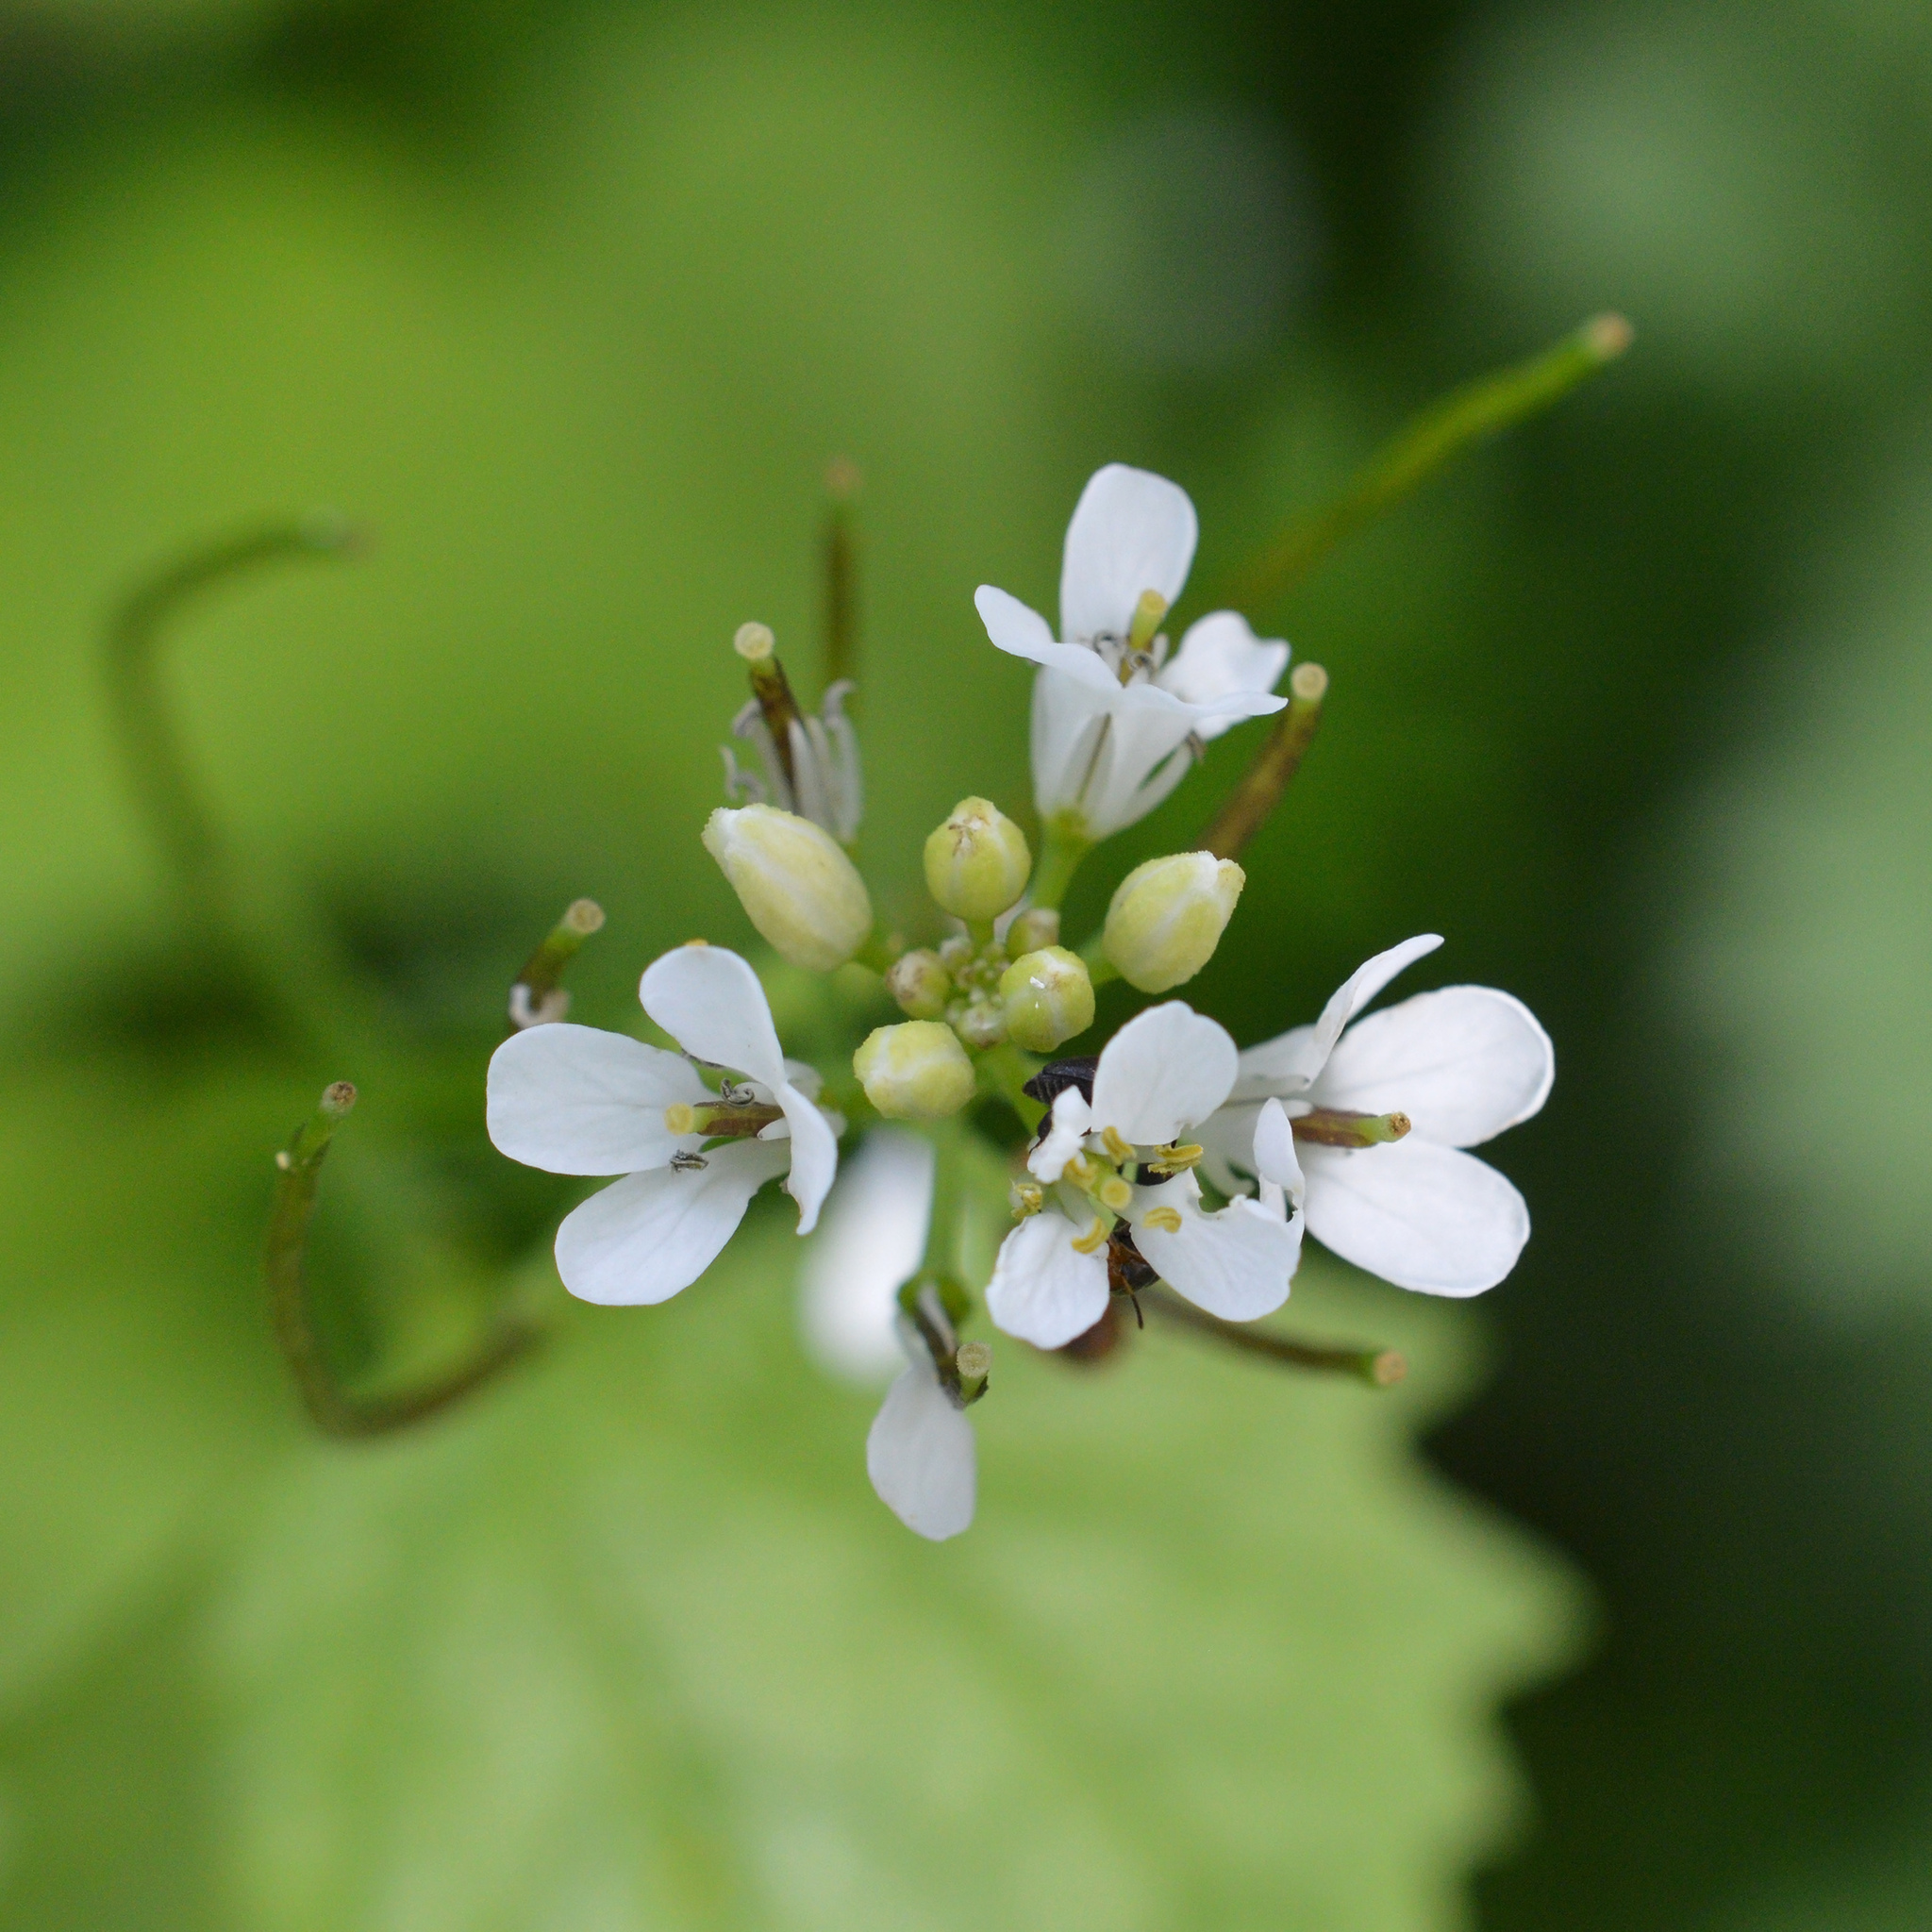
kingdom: Plantae
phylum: Tracheophyta
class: Magnoliopsida
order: Brassicales
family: Brassicaceae
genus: Alliaria
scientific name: Alliaria petiolata
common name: Garlic mustard
